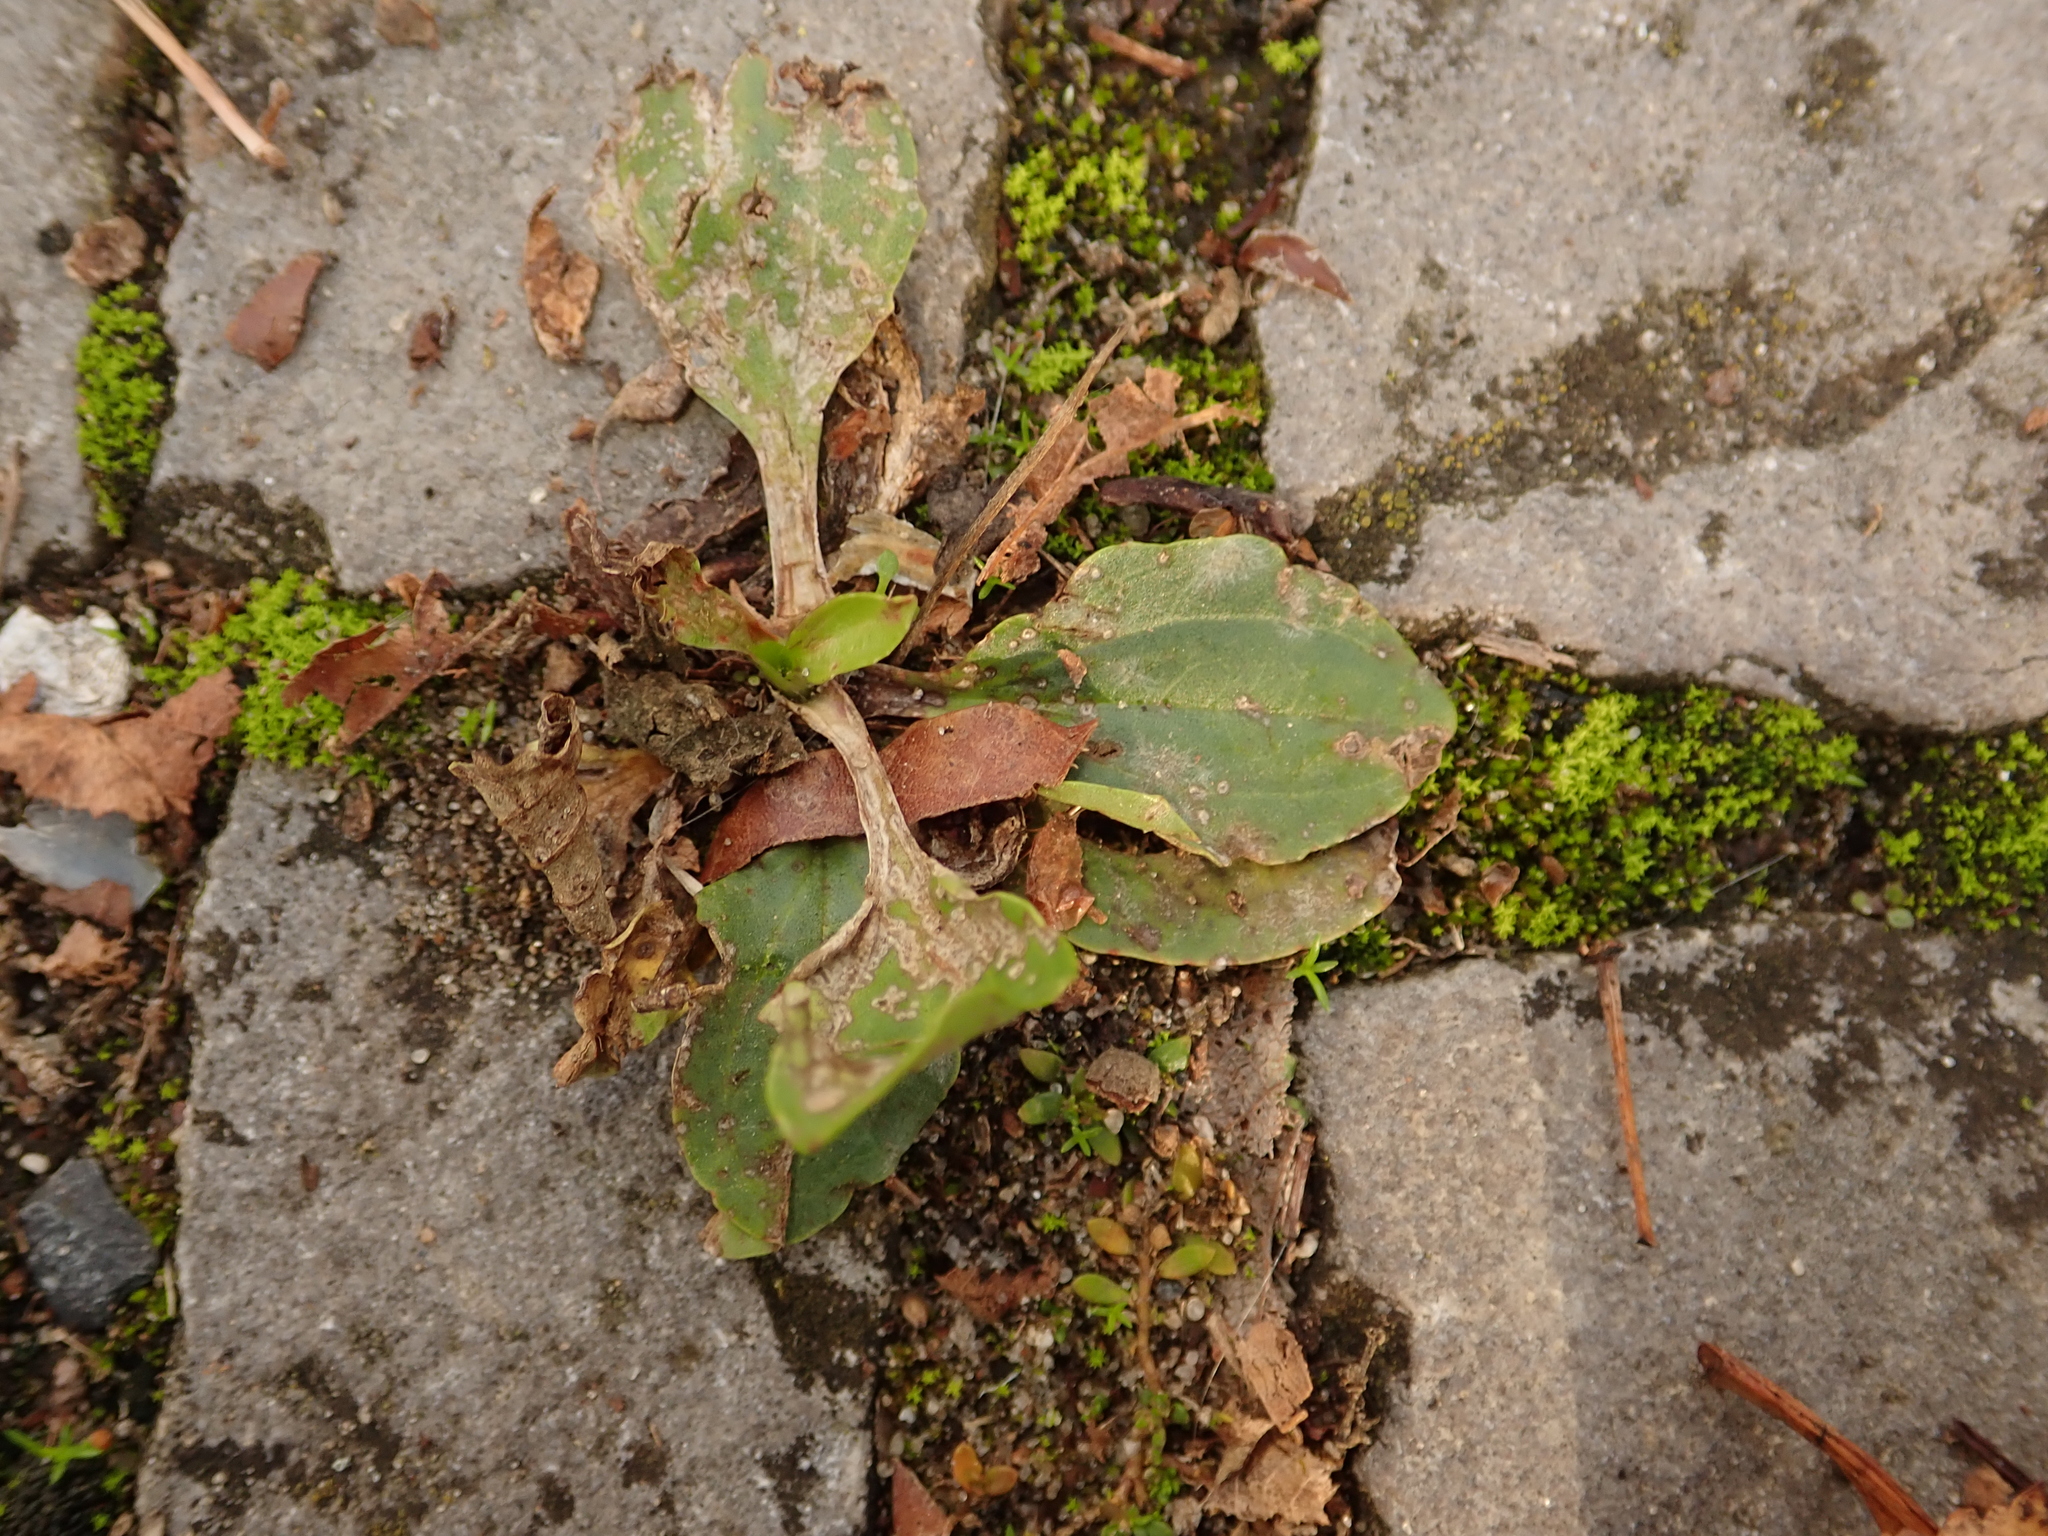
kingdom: Plantae
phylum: Tracheophyta
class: Magnoliopsida
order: Lamiales
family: Plantaginaceae
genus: Plantago
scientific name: Plantago major
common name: Common plantain
